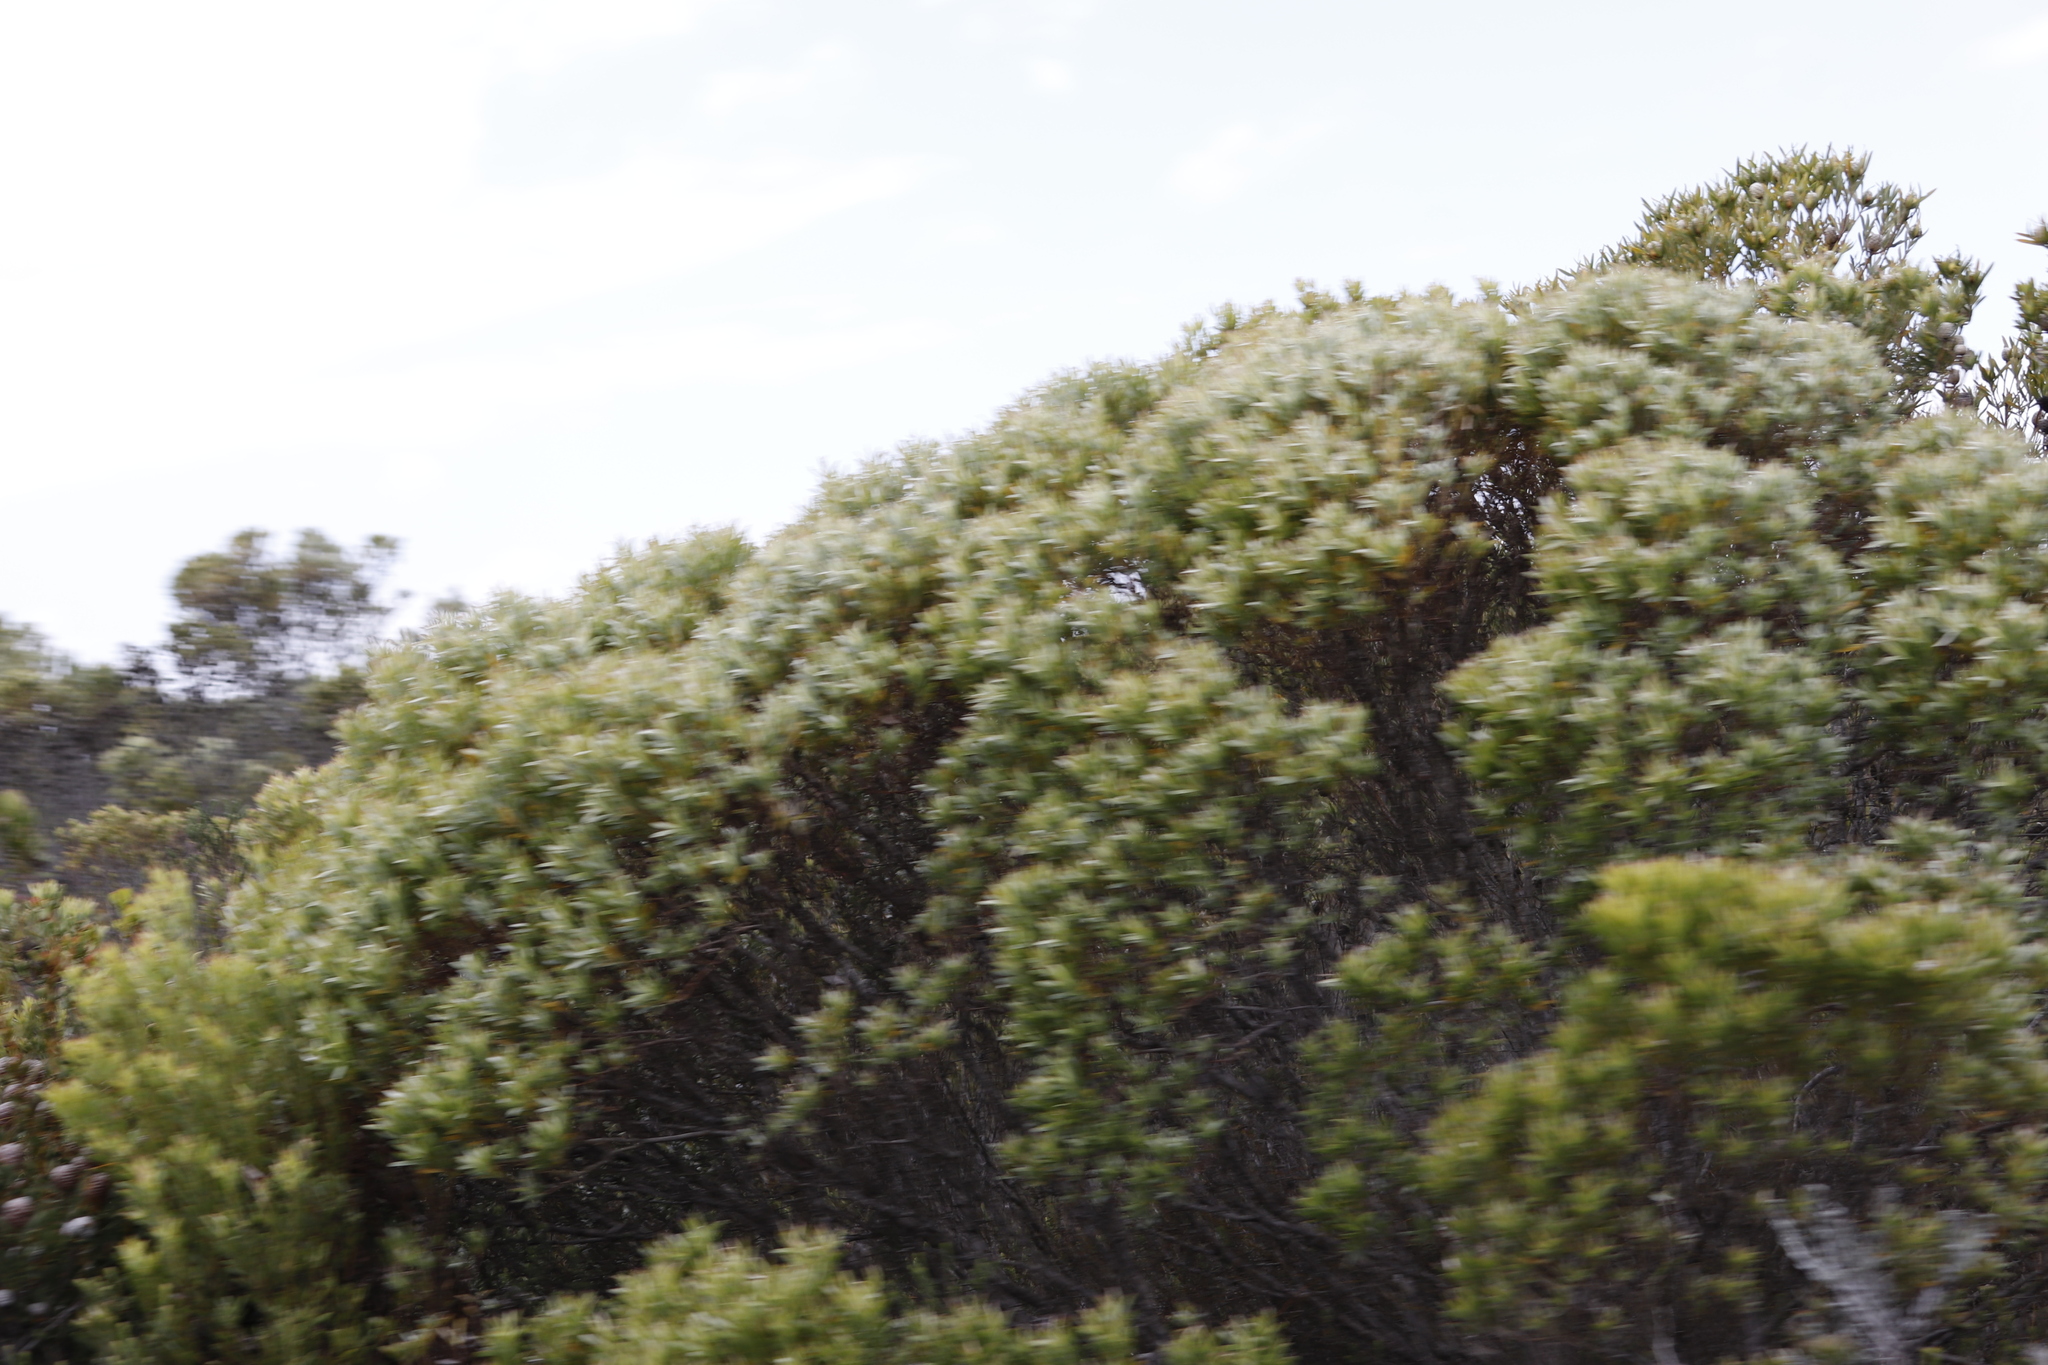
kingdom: Plantae
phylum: Tracheophyta
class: Magnoliopsida
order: Proteales
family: Proteaceae
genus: Leucadendron
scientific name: Leucadendron meridianum
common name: Limestone conebush
